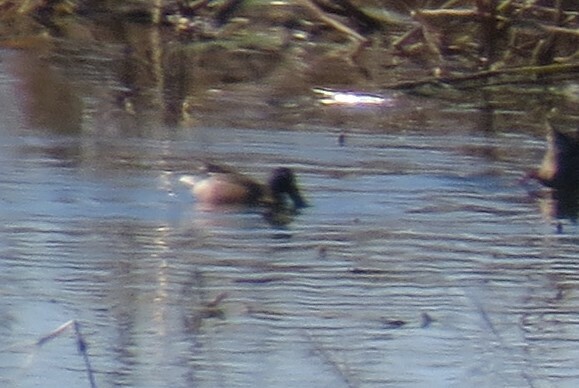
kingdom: Animalia
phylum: Chordata
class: Aves
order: Anseriformes
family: Anatidae
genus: Spatula
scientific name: Spatula clypeata
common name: Northern shoveler
